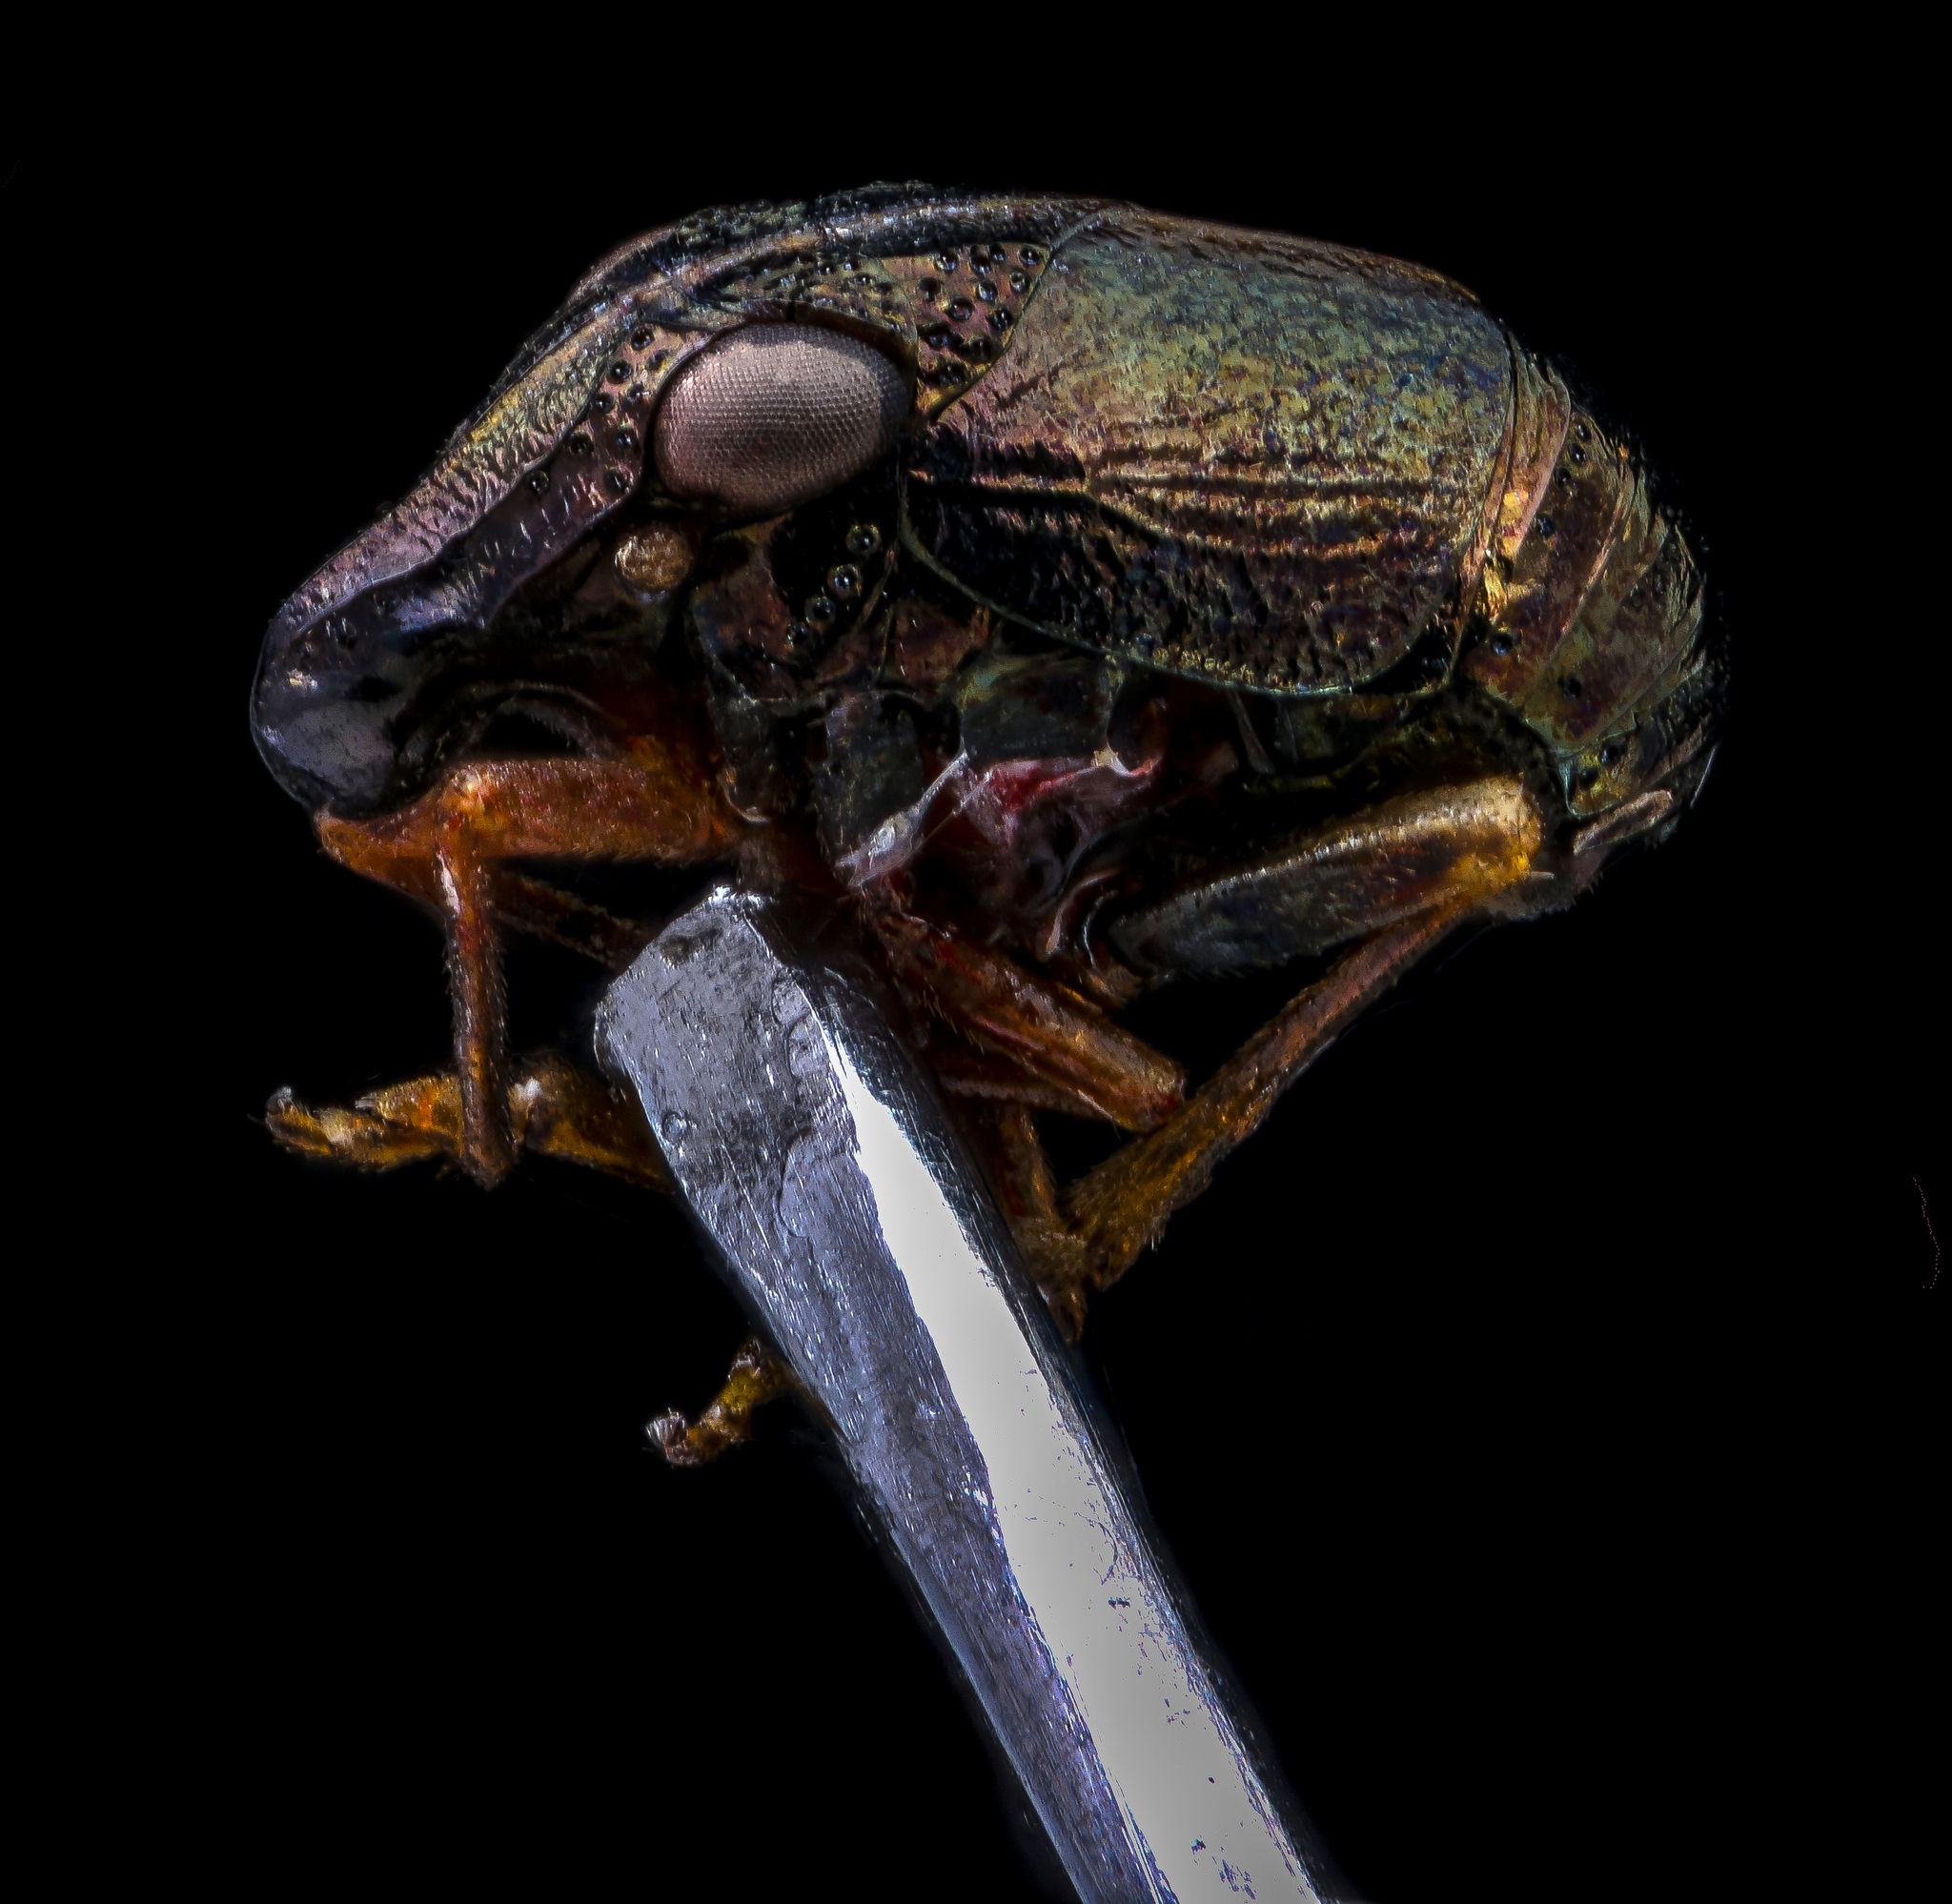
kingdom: Animalia
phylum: Arthropoda
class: Insecta
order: Hemiptera
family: Caliscelidae
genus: Bruchomorpha
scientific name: Bruchomorpha oculata
